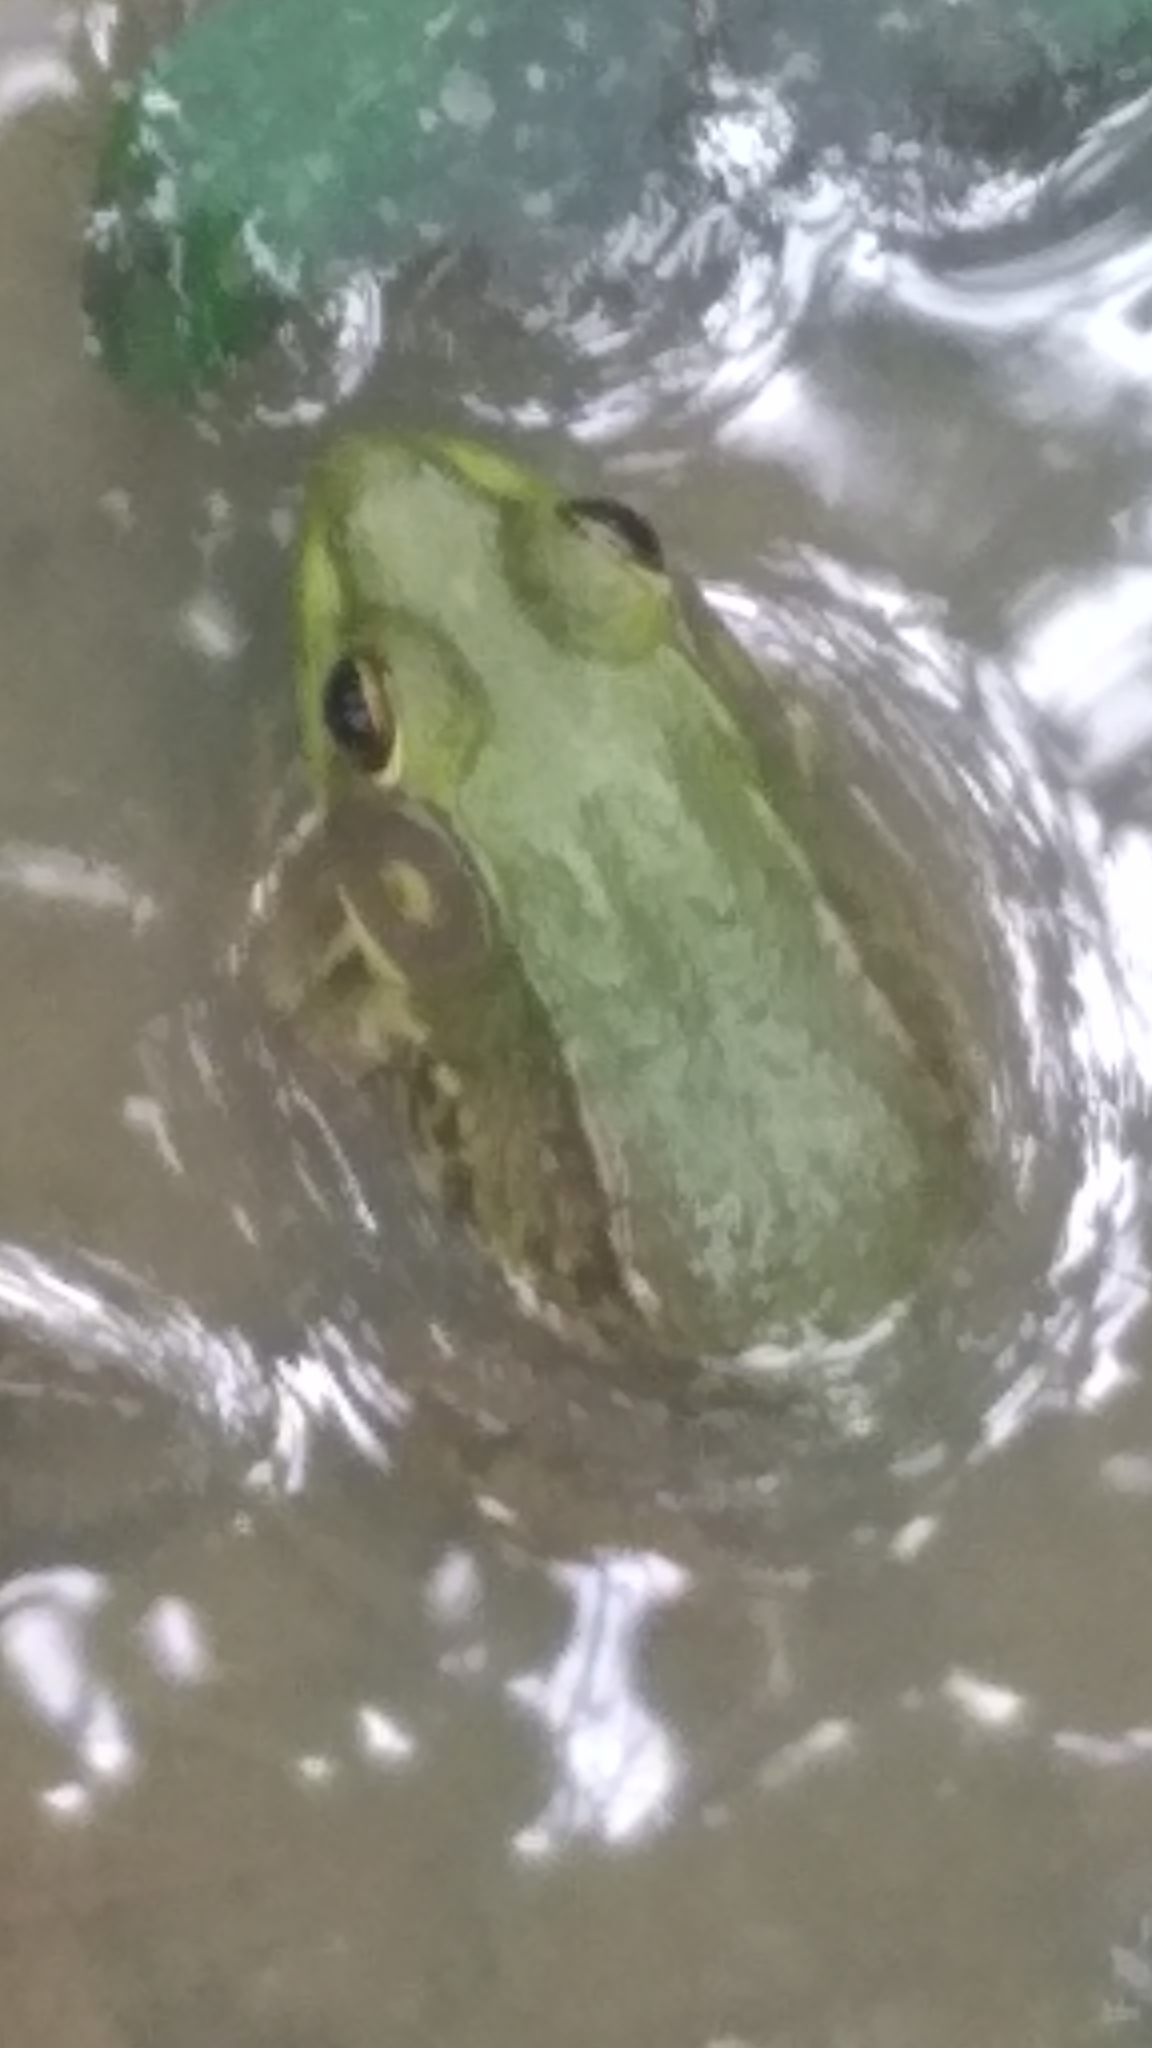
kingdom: Animalia
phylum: Chordata
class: Amphibia
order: Anura
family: Ranidae
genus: Lithobates
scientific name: Lithobates clamitans
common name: Green frog
